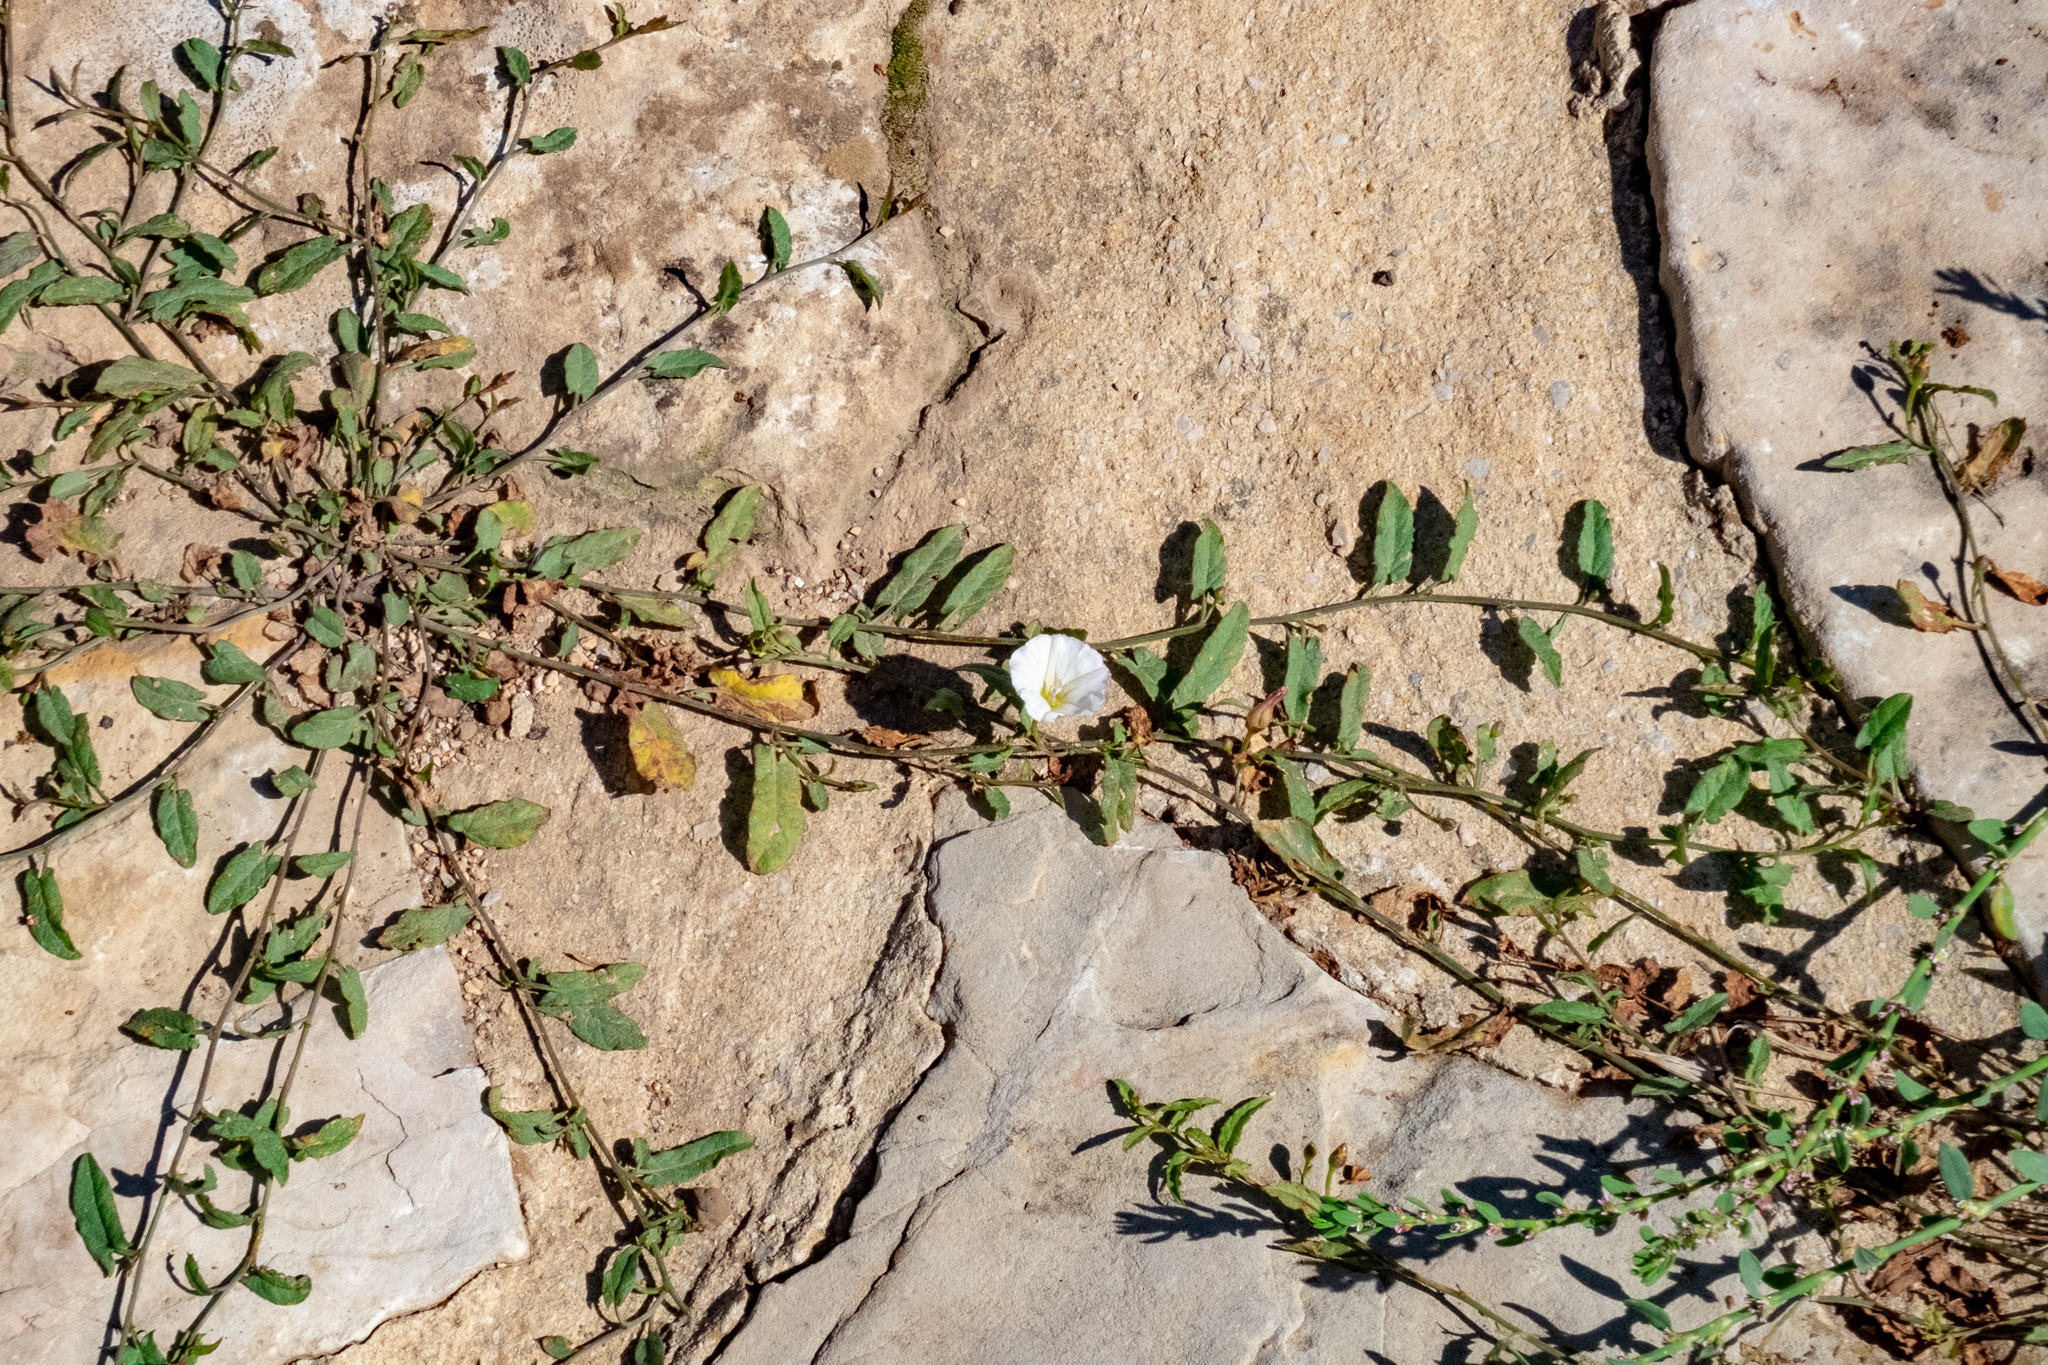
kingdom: Plantae
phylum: Tracheophyta
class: Magnoliopsida
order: Solanales
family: Convolvulaceae
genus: Convolvulus
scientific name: Convolvulus arvensis
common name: Field bindweed
